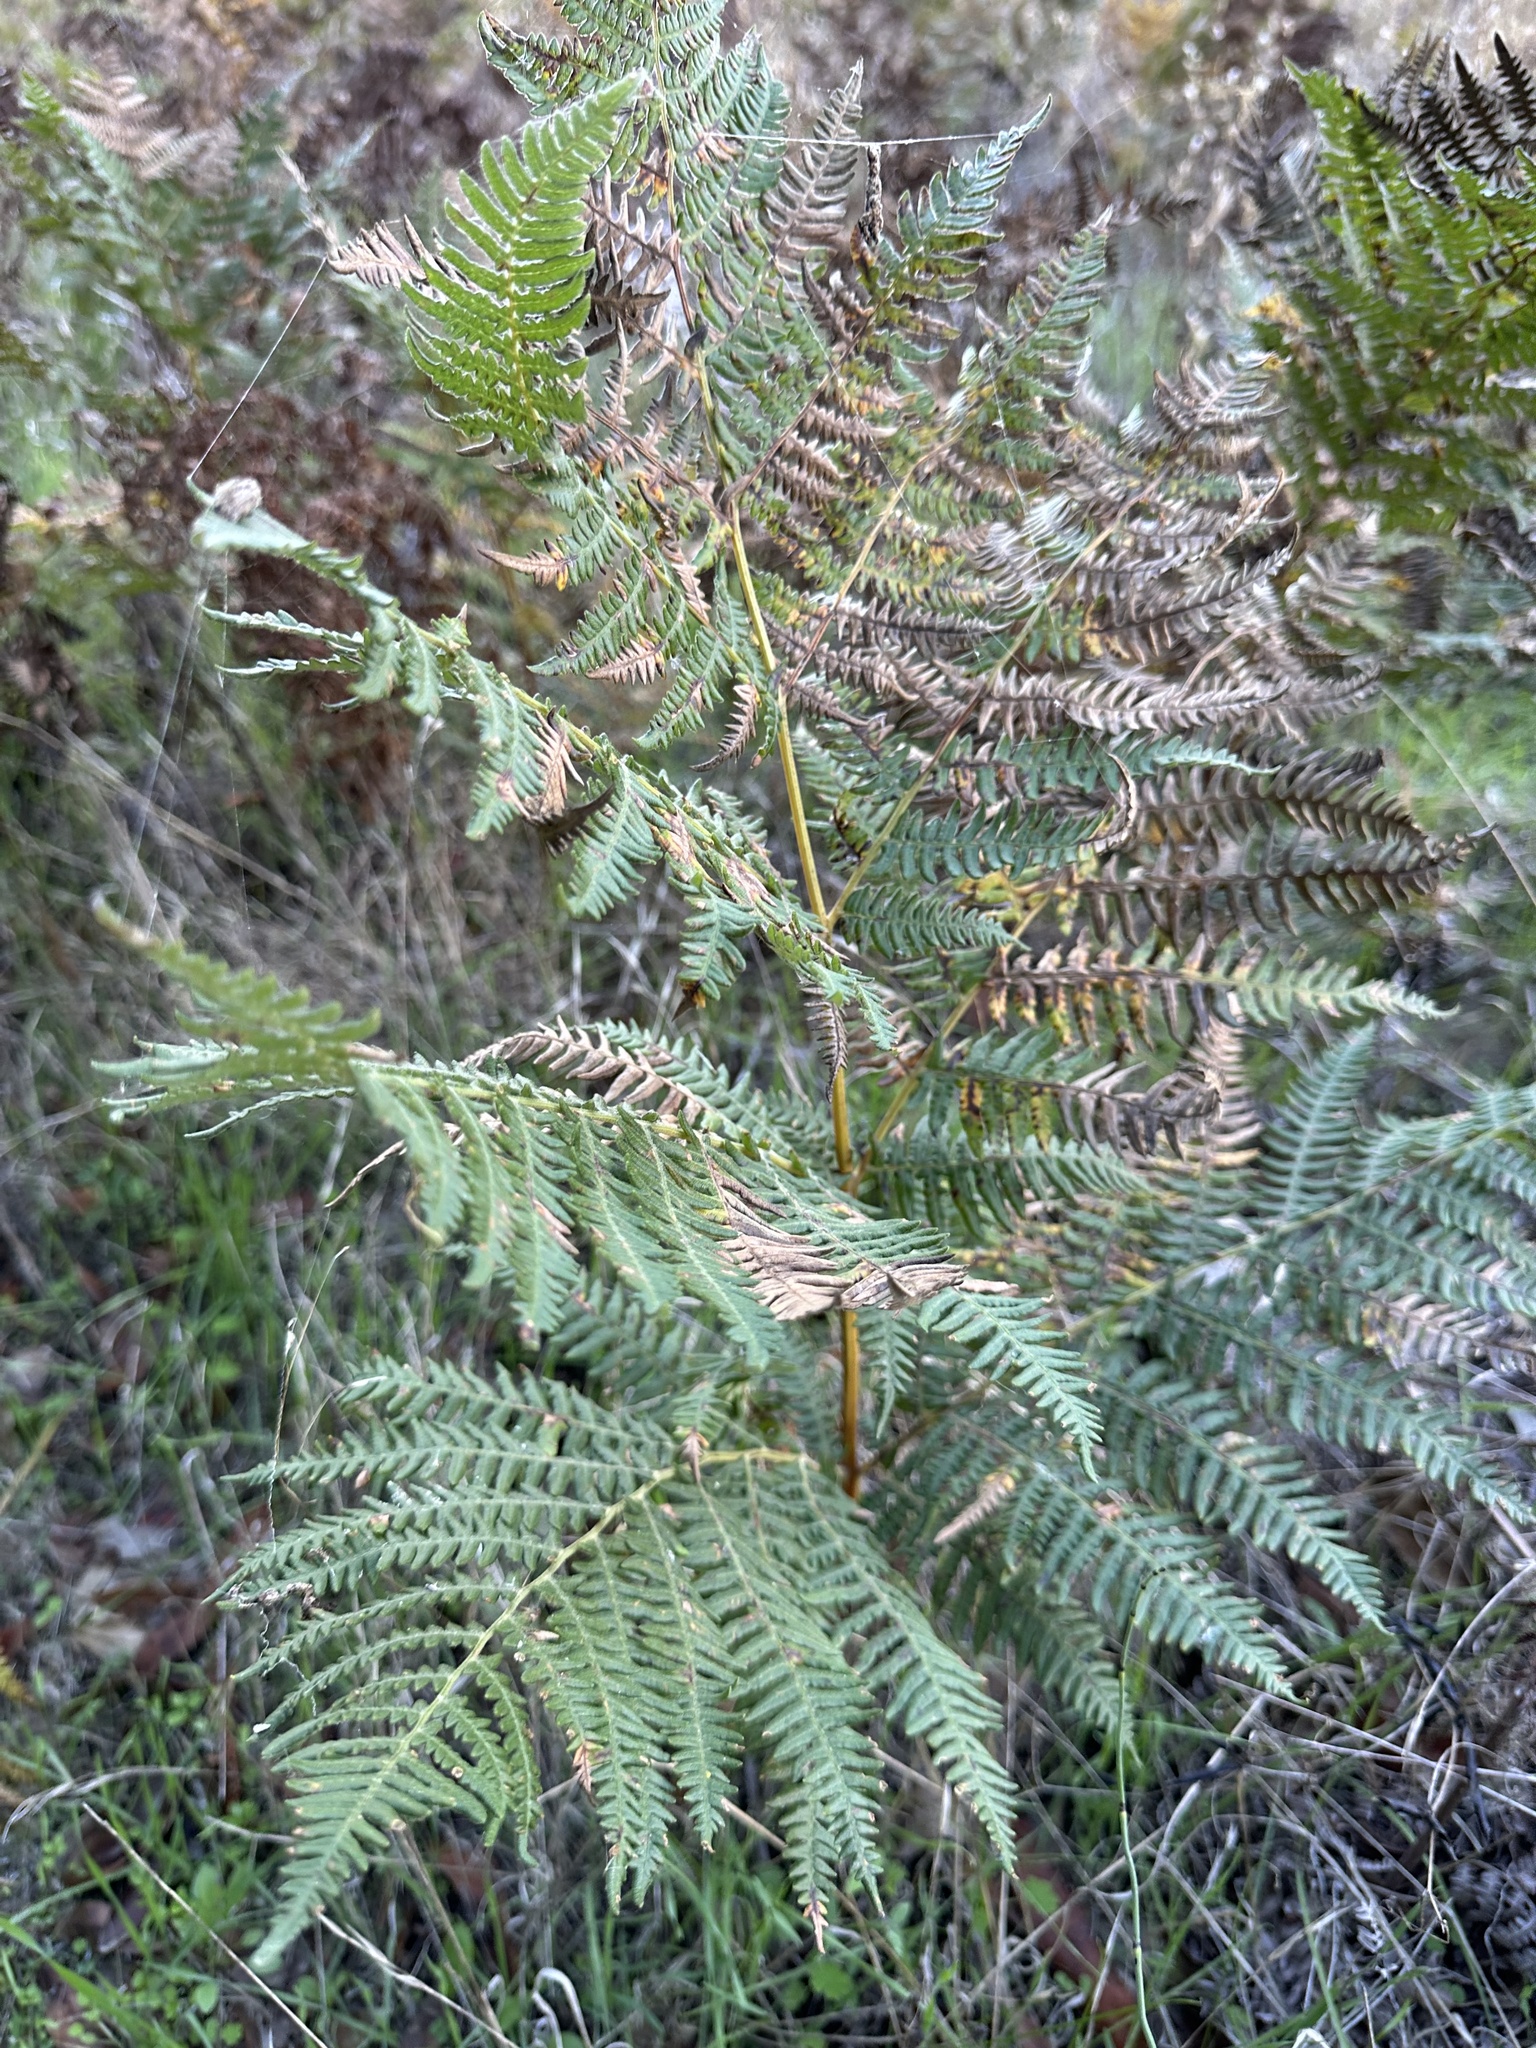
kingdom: Plantae
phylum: Tracheophyta
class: Polypodiopsida
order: Polypodiales
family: Dennstaedtiaceae
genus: Pteridium
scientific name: Pteridium aquilinum
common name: Bracken
